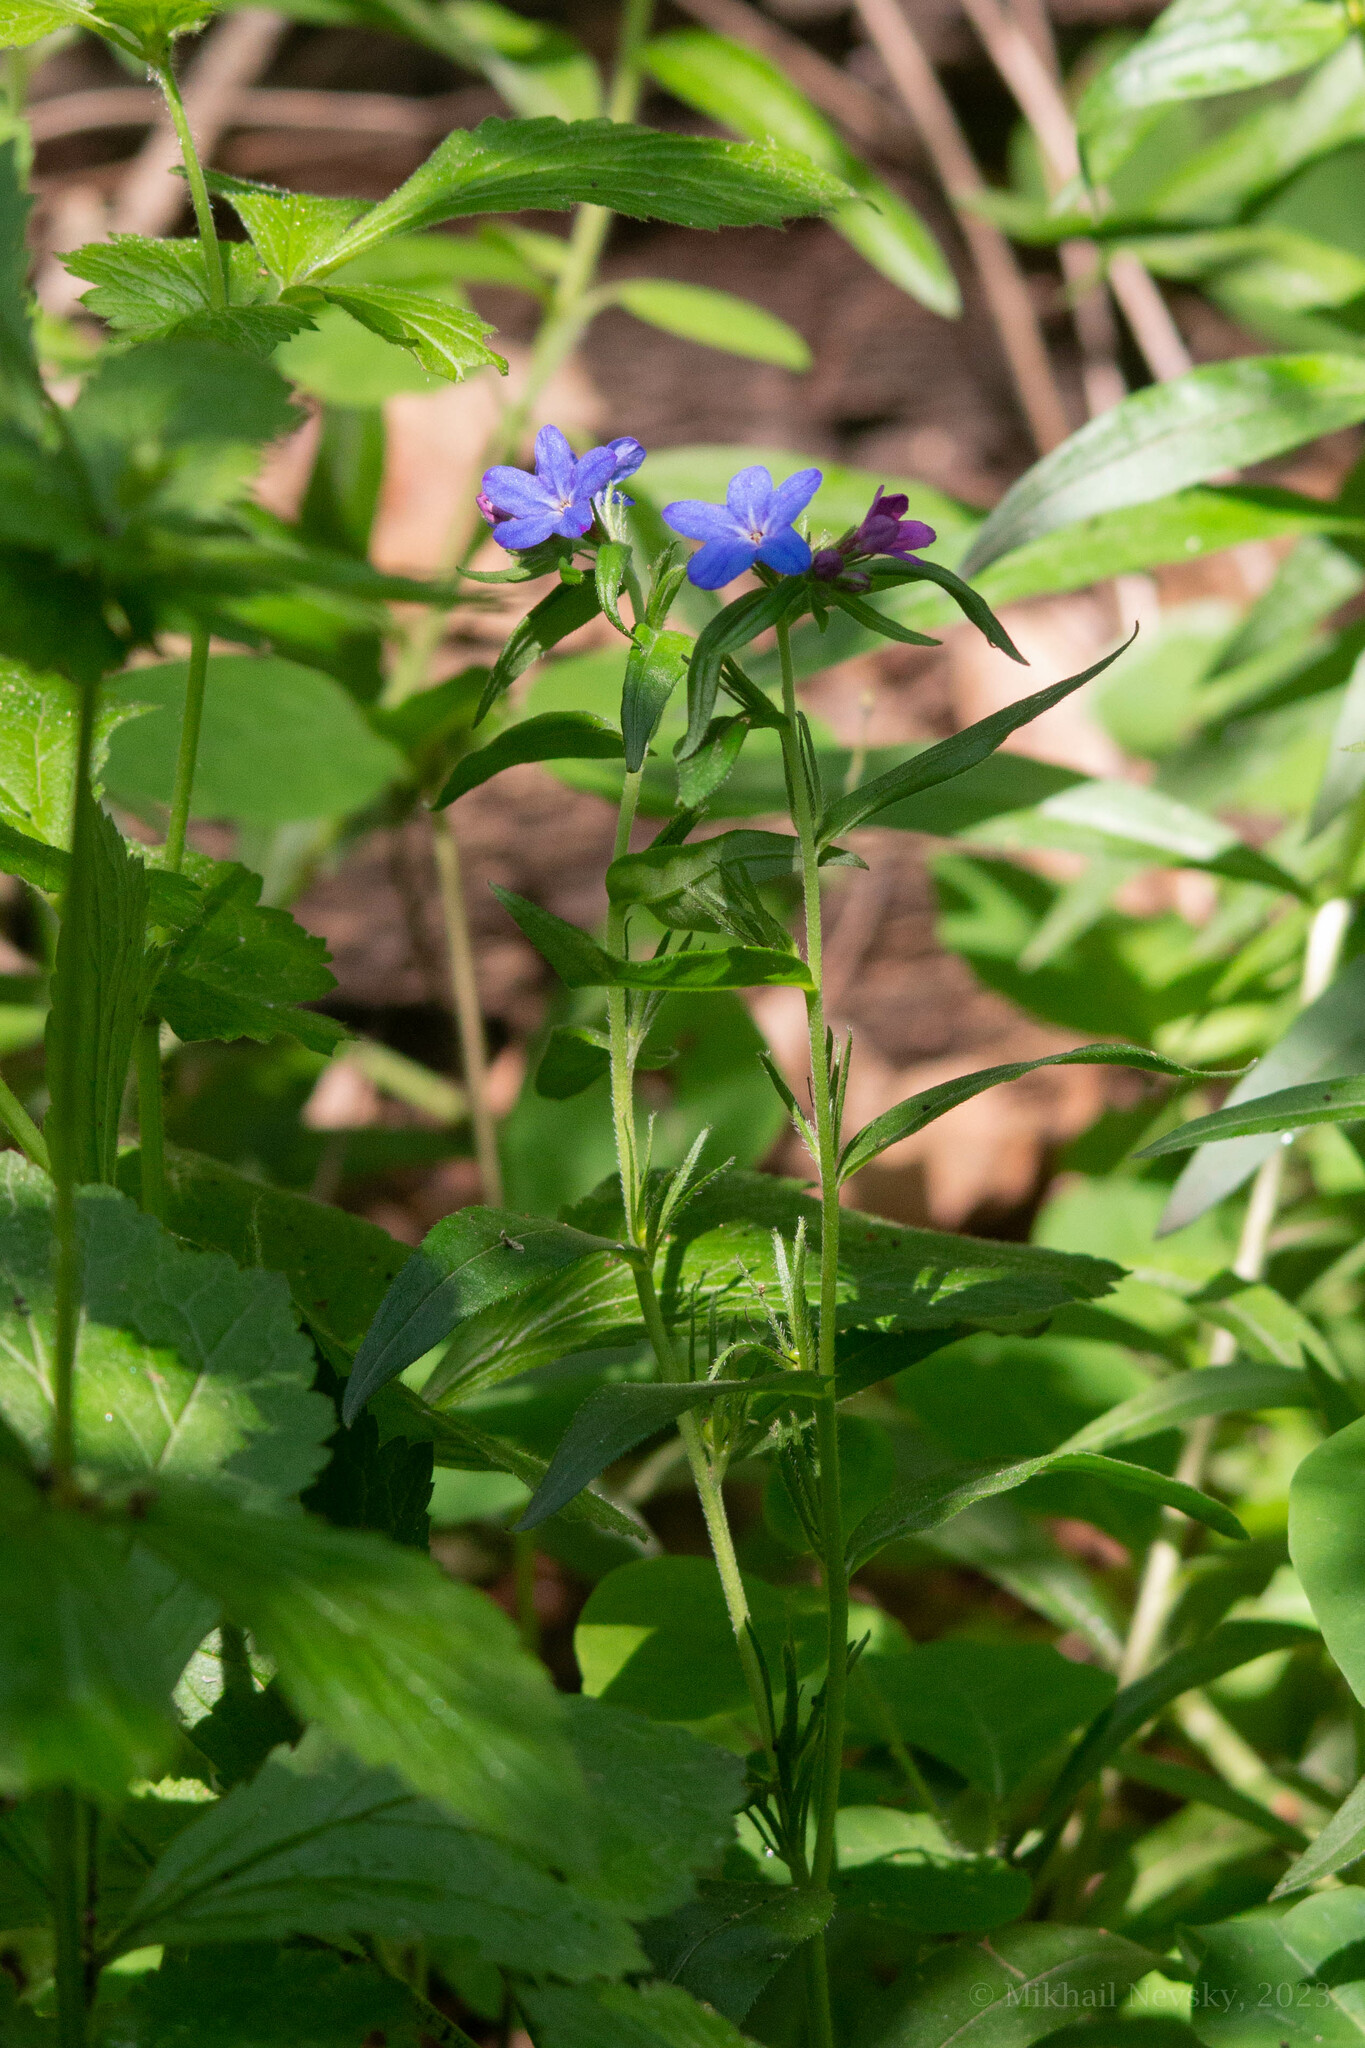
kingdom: Plantae
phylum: Tracheophyta
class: Magnoliopsida
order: Boraginales
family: Boraginaceae
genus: Aegonychon
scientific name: Aegonychon purpurocaeruleum
